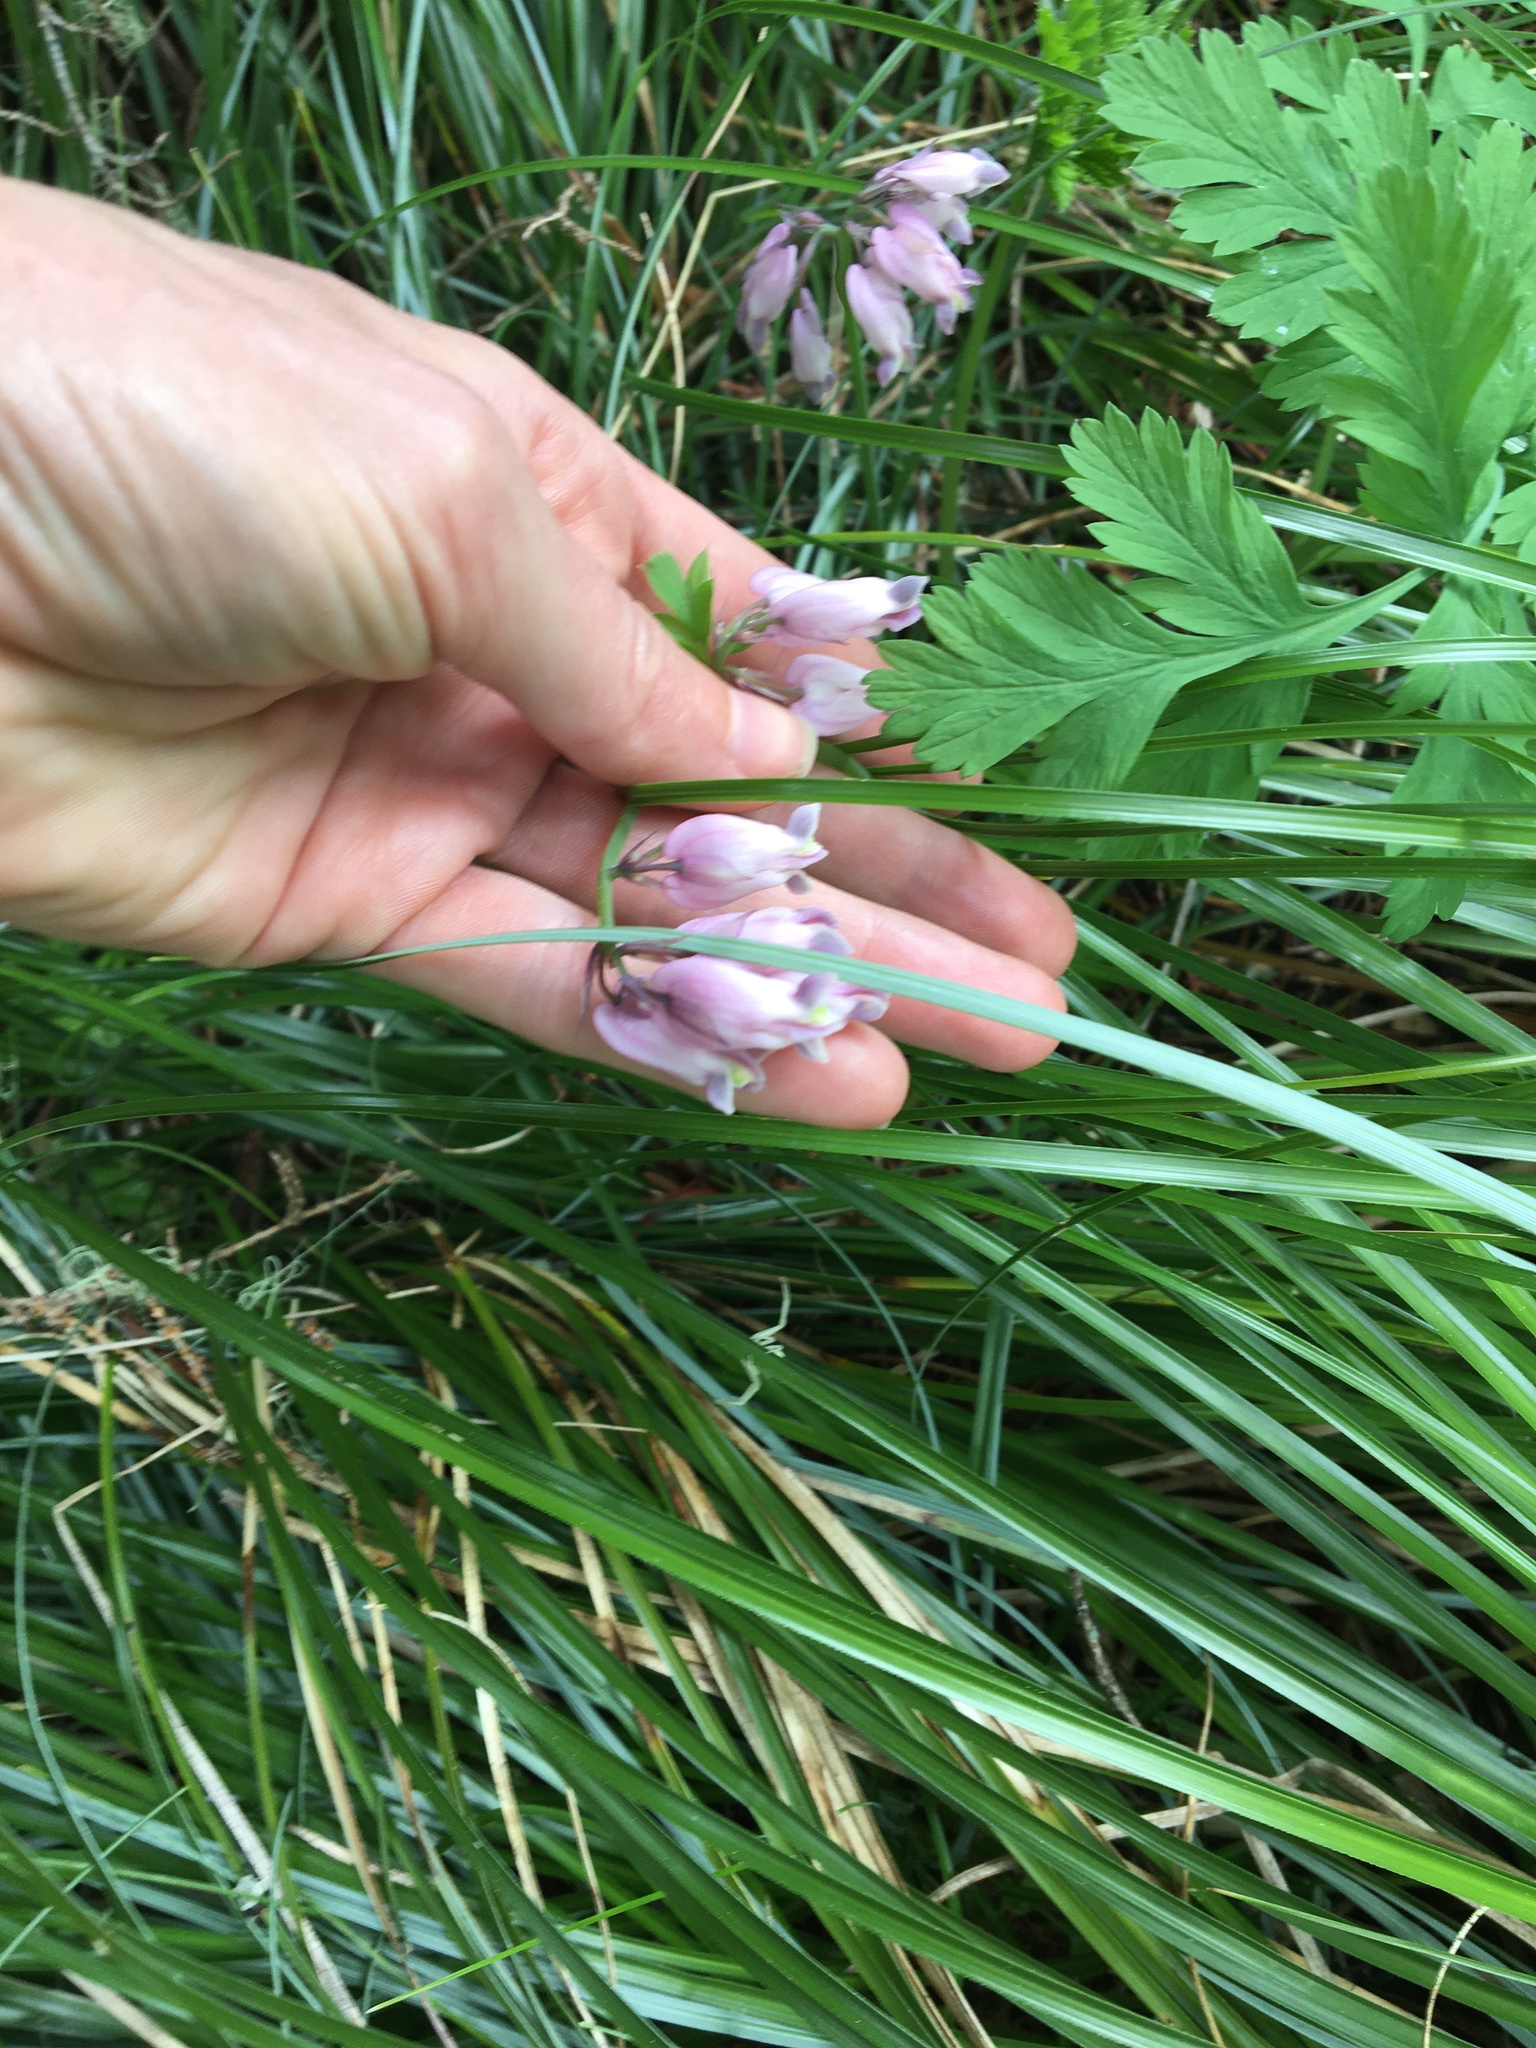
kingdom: Plantae
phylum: Tracheophyta
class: Magnoliopsida
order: Ranunculales
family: Papaveraceae
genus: Dicentra
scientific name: Dicentra formosa
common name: Bleeding-heart
